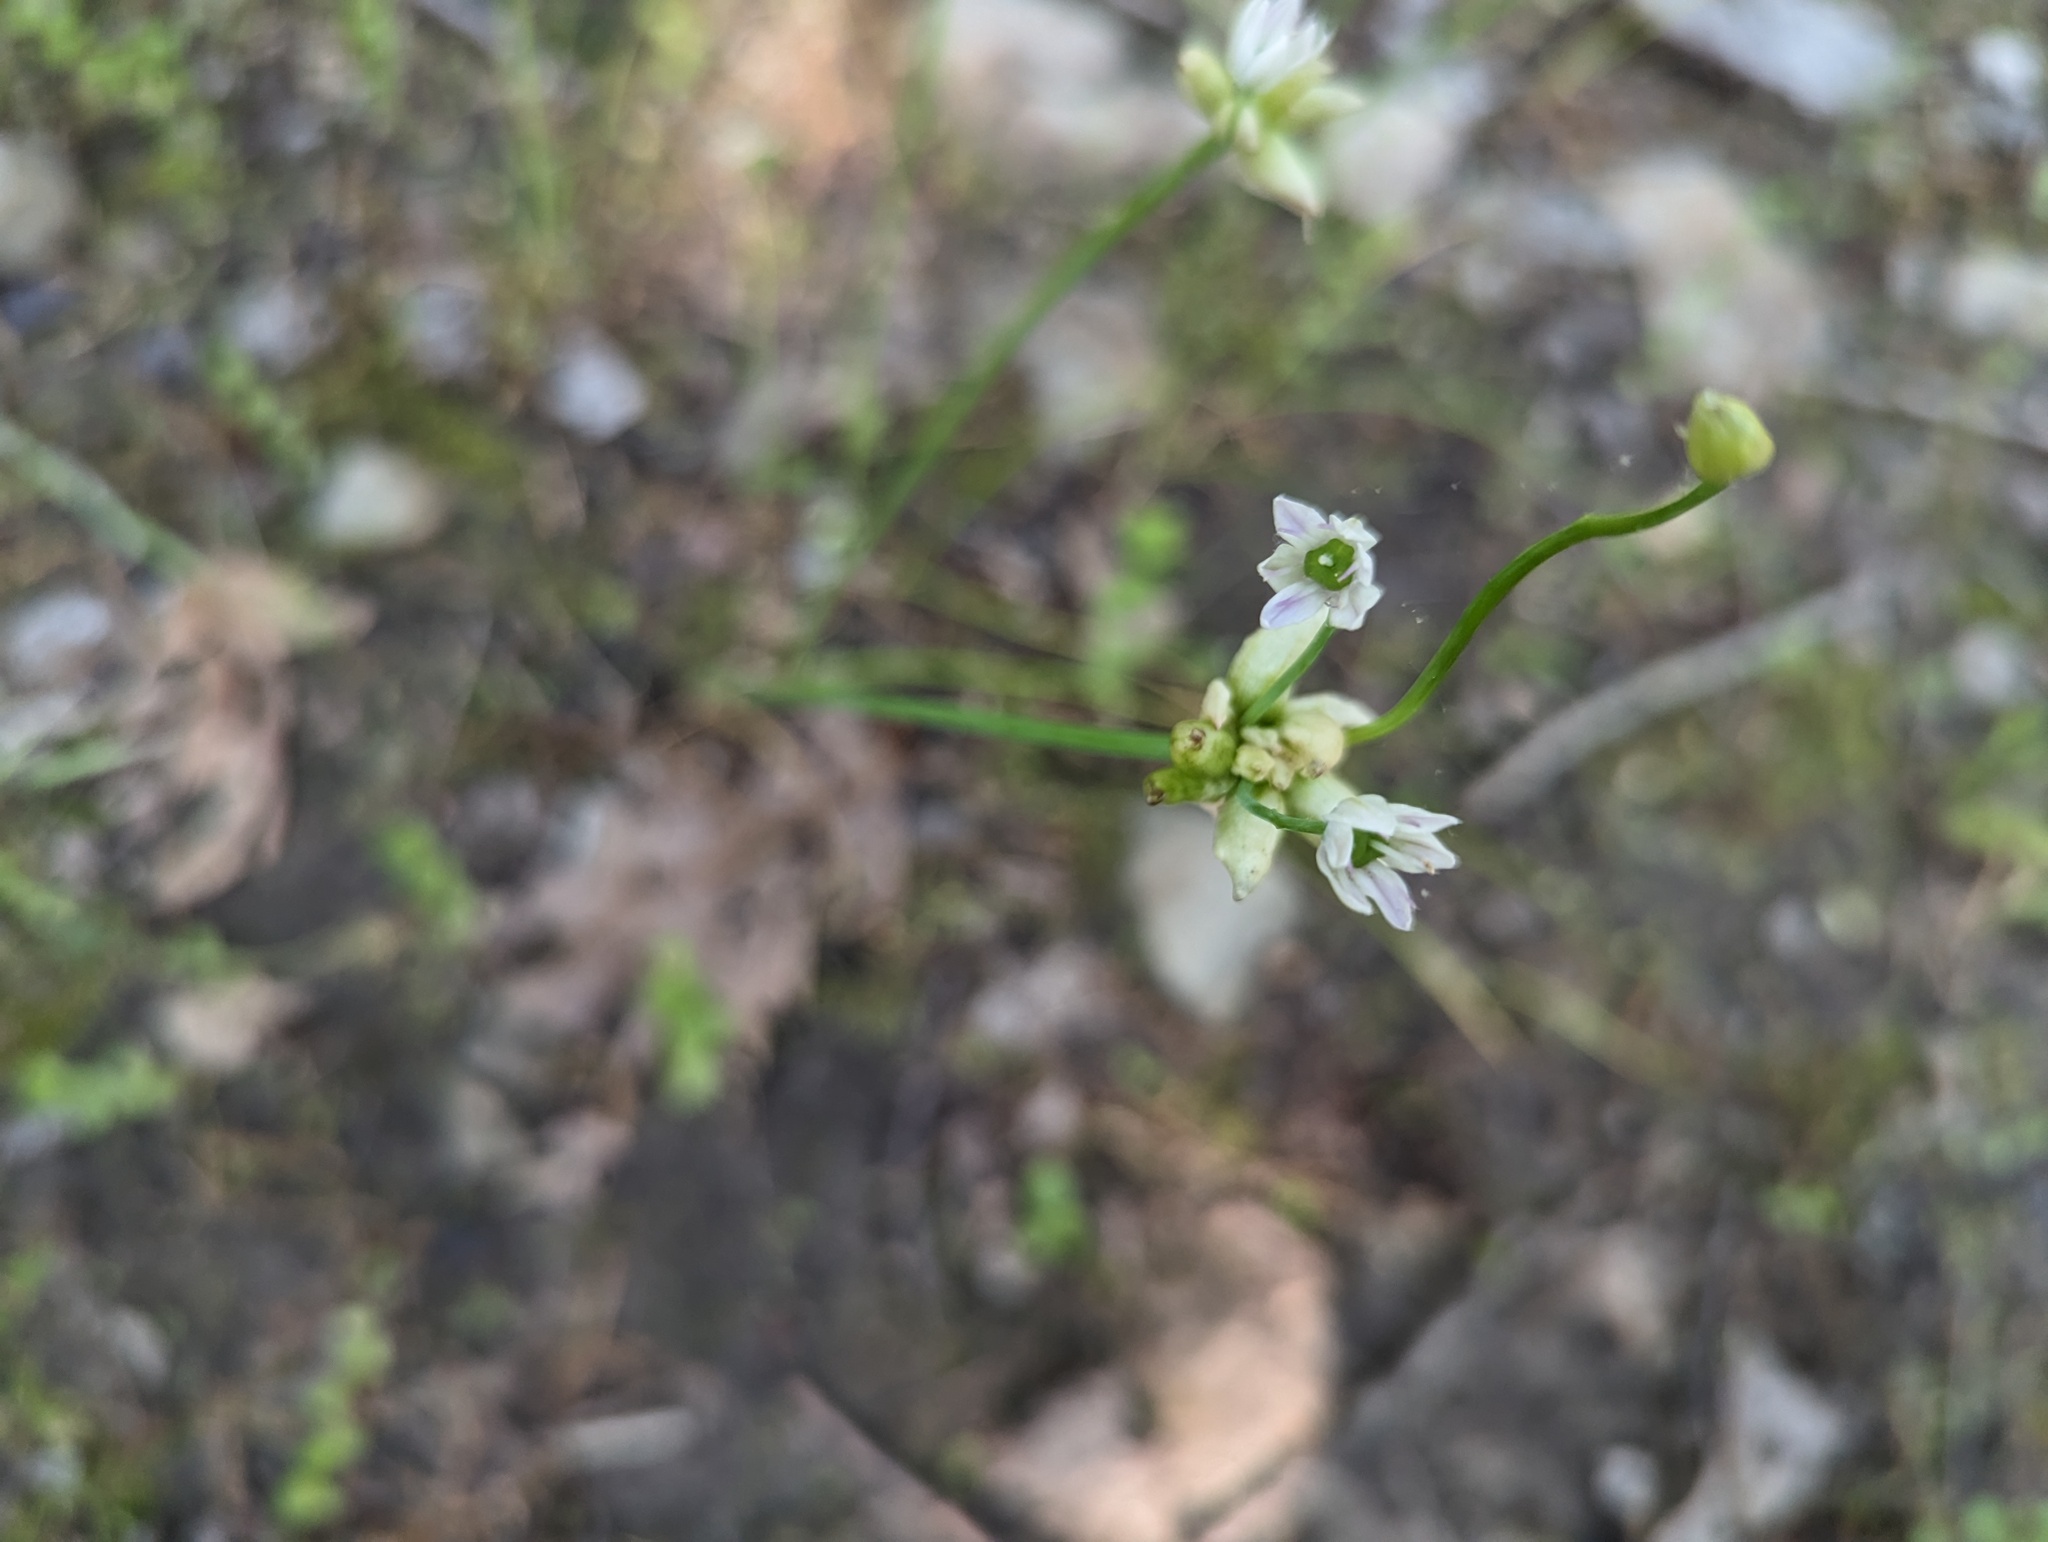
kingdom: Plantae
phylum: Tracheophyta
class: Liliopsida
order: Asparagales
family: Amaryllidaceae
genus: Allium
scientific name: Allium canadense
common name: Meadow garlic
